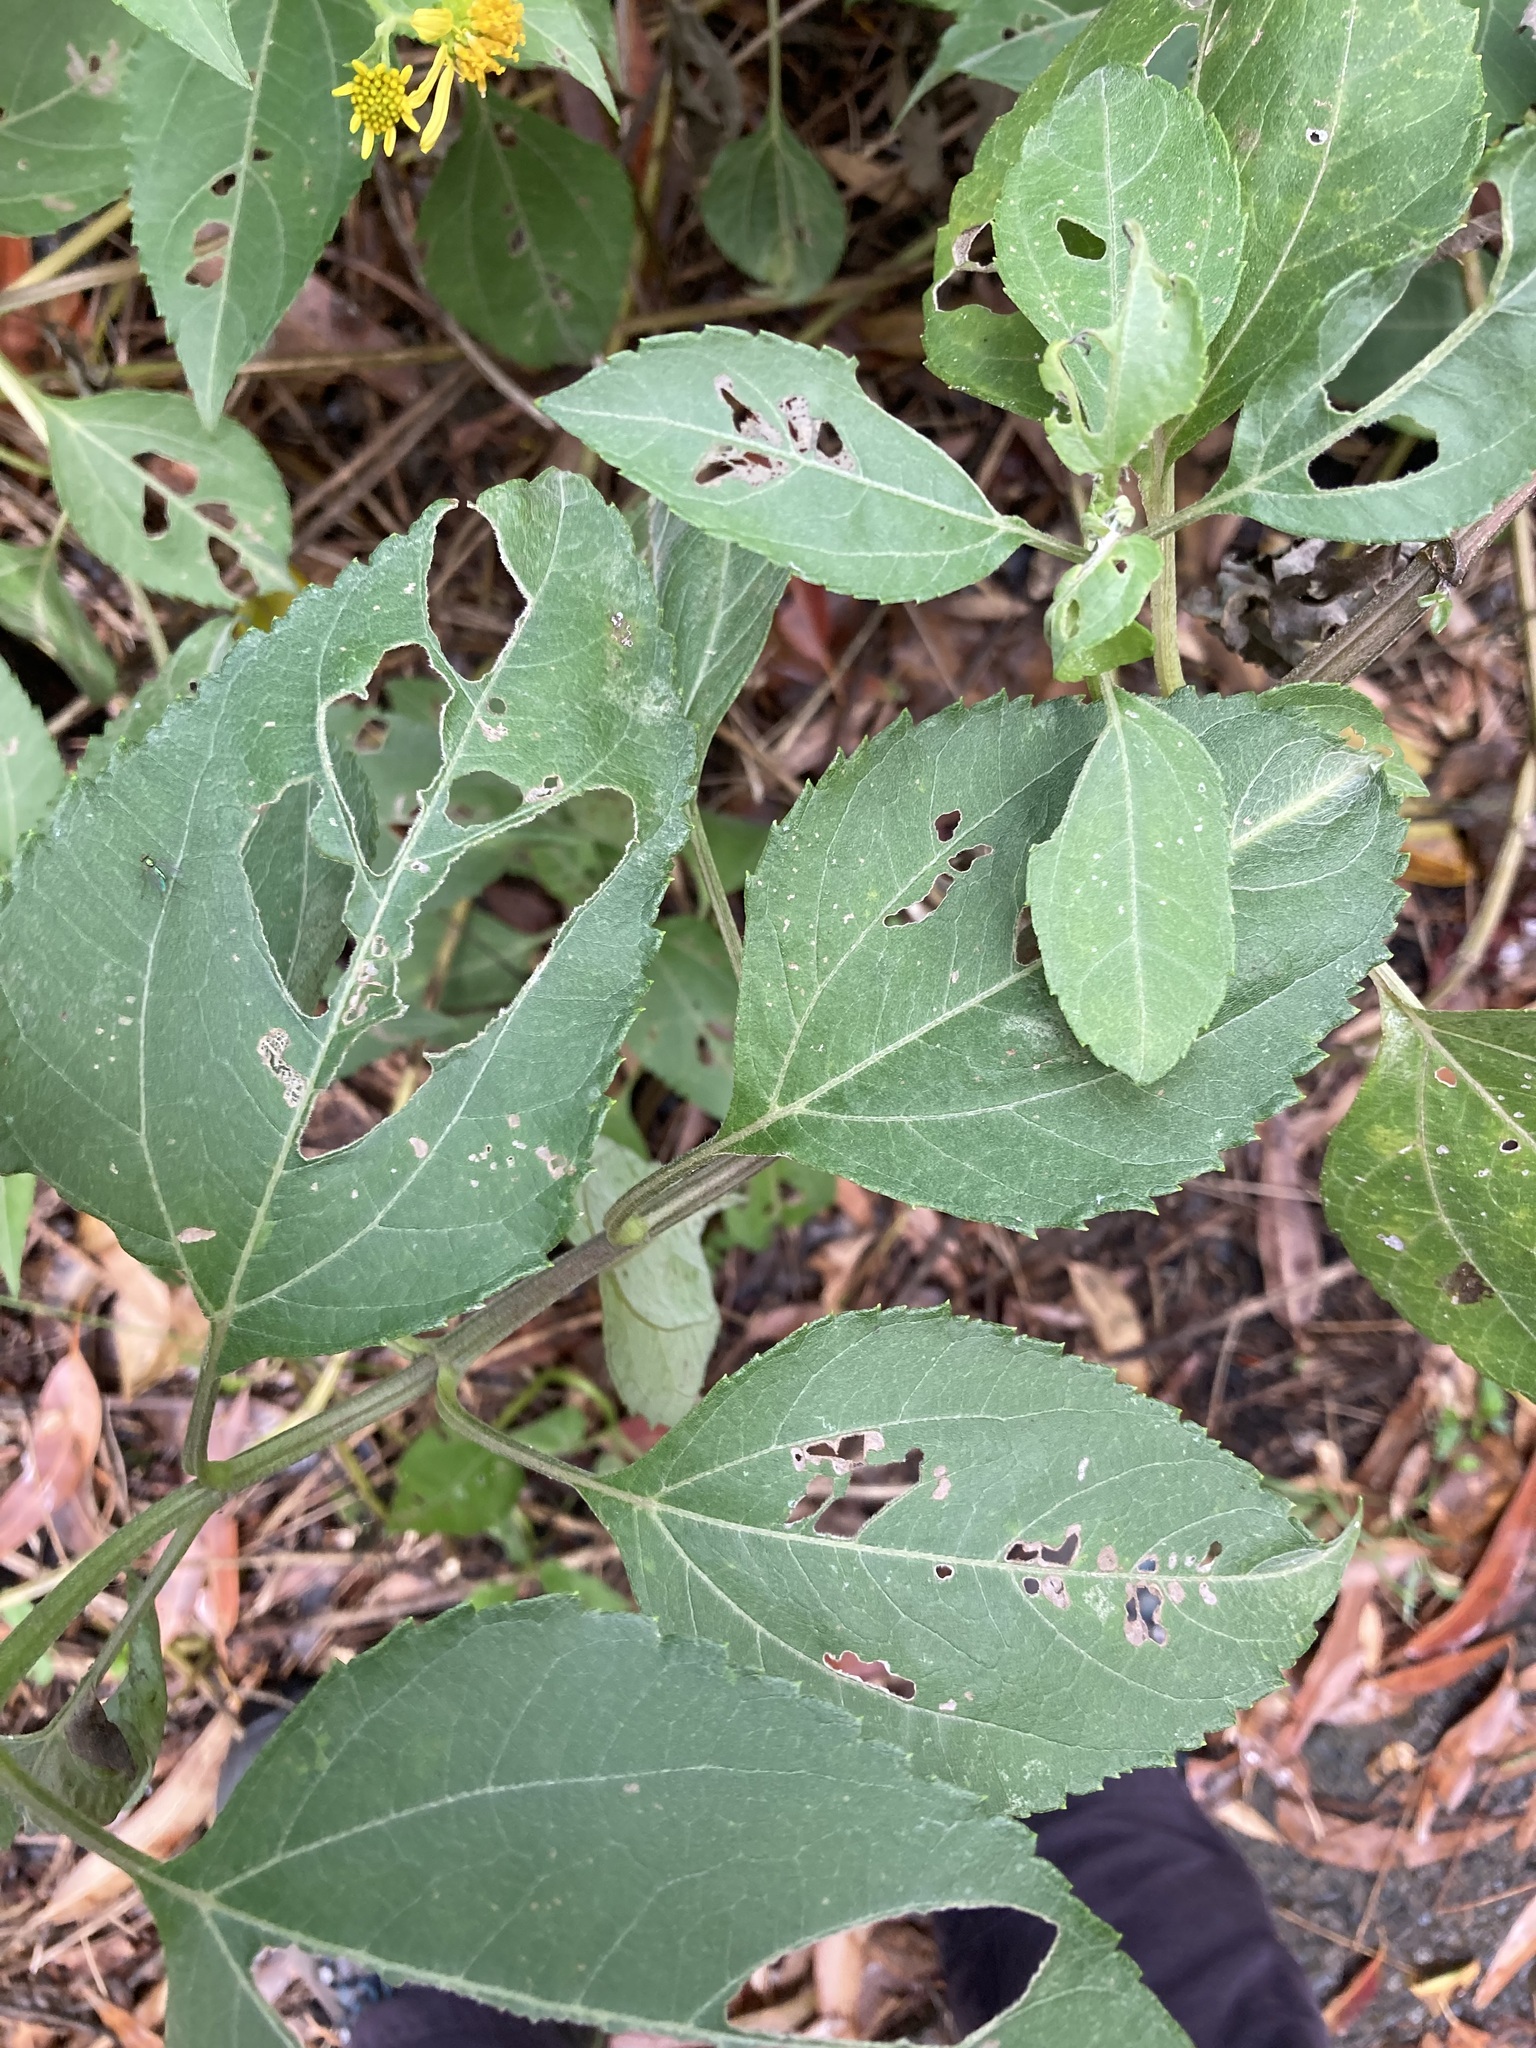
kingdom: Plantae
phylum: Tracheophyta
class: Magnoliopsida
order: Asterales
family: Asteraceae
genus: Wollastonia
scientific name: Wollastonia uniflora
